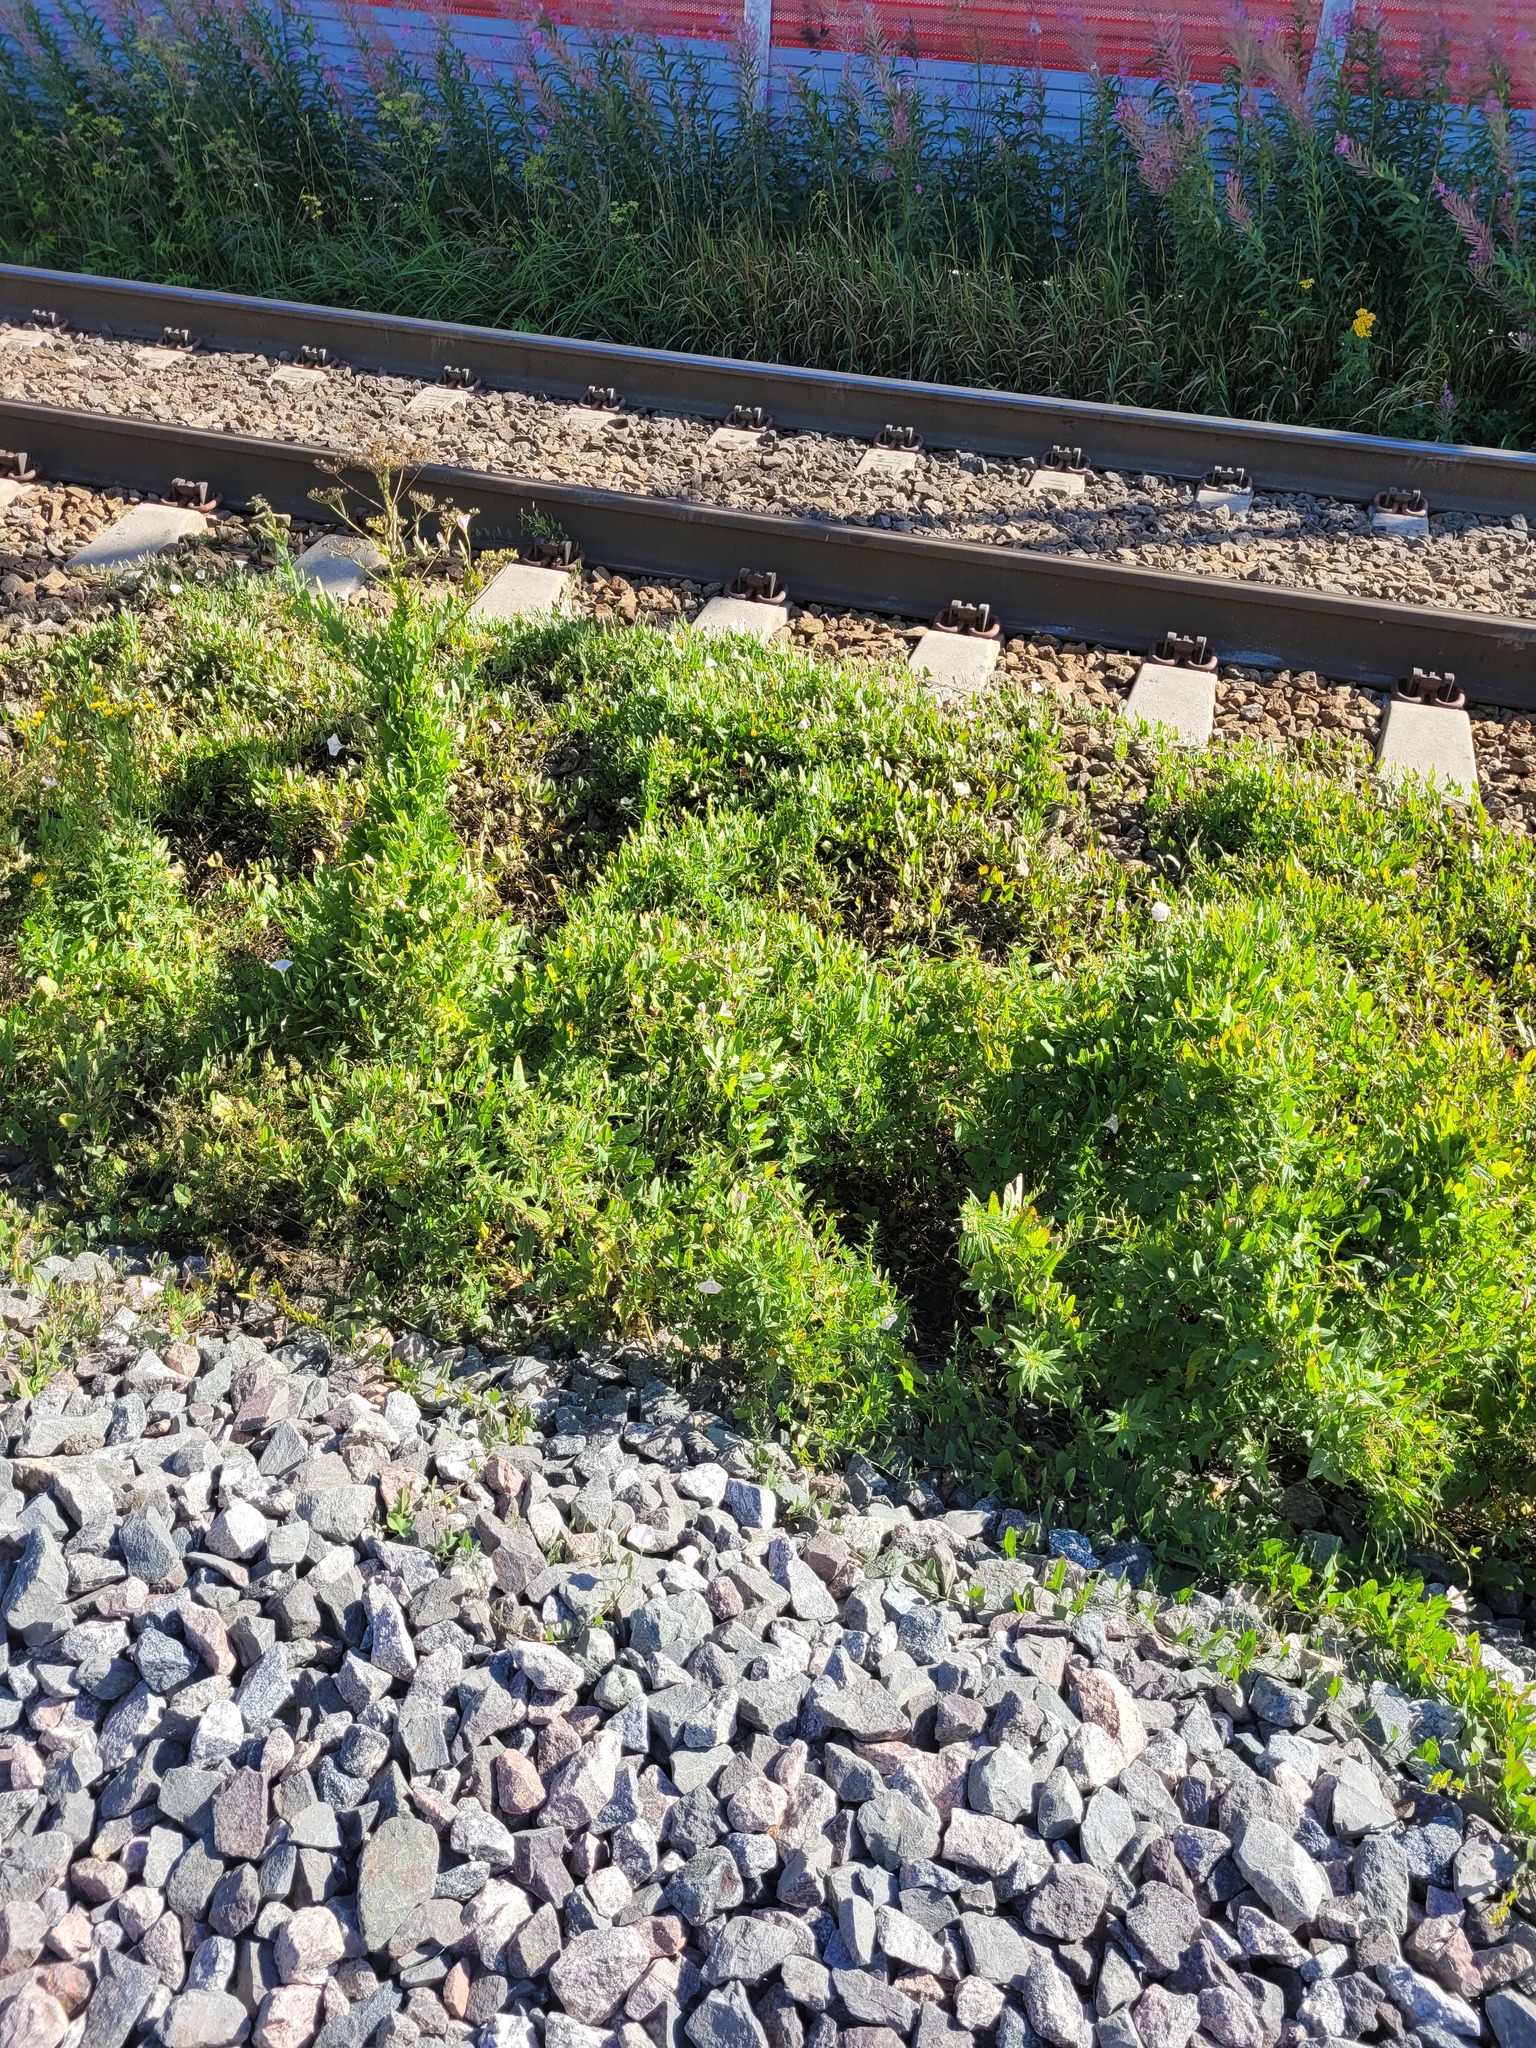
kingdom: Plantae
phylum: Tracheophyta
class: Magnoliopsida
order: Solanales
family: Convolvulaceae
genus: Convolvulus
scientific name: Convolvulus arvensis
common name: Field bindweed
